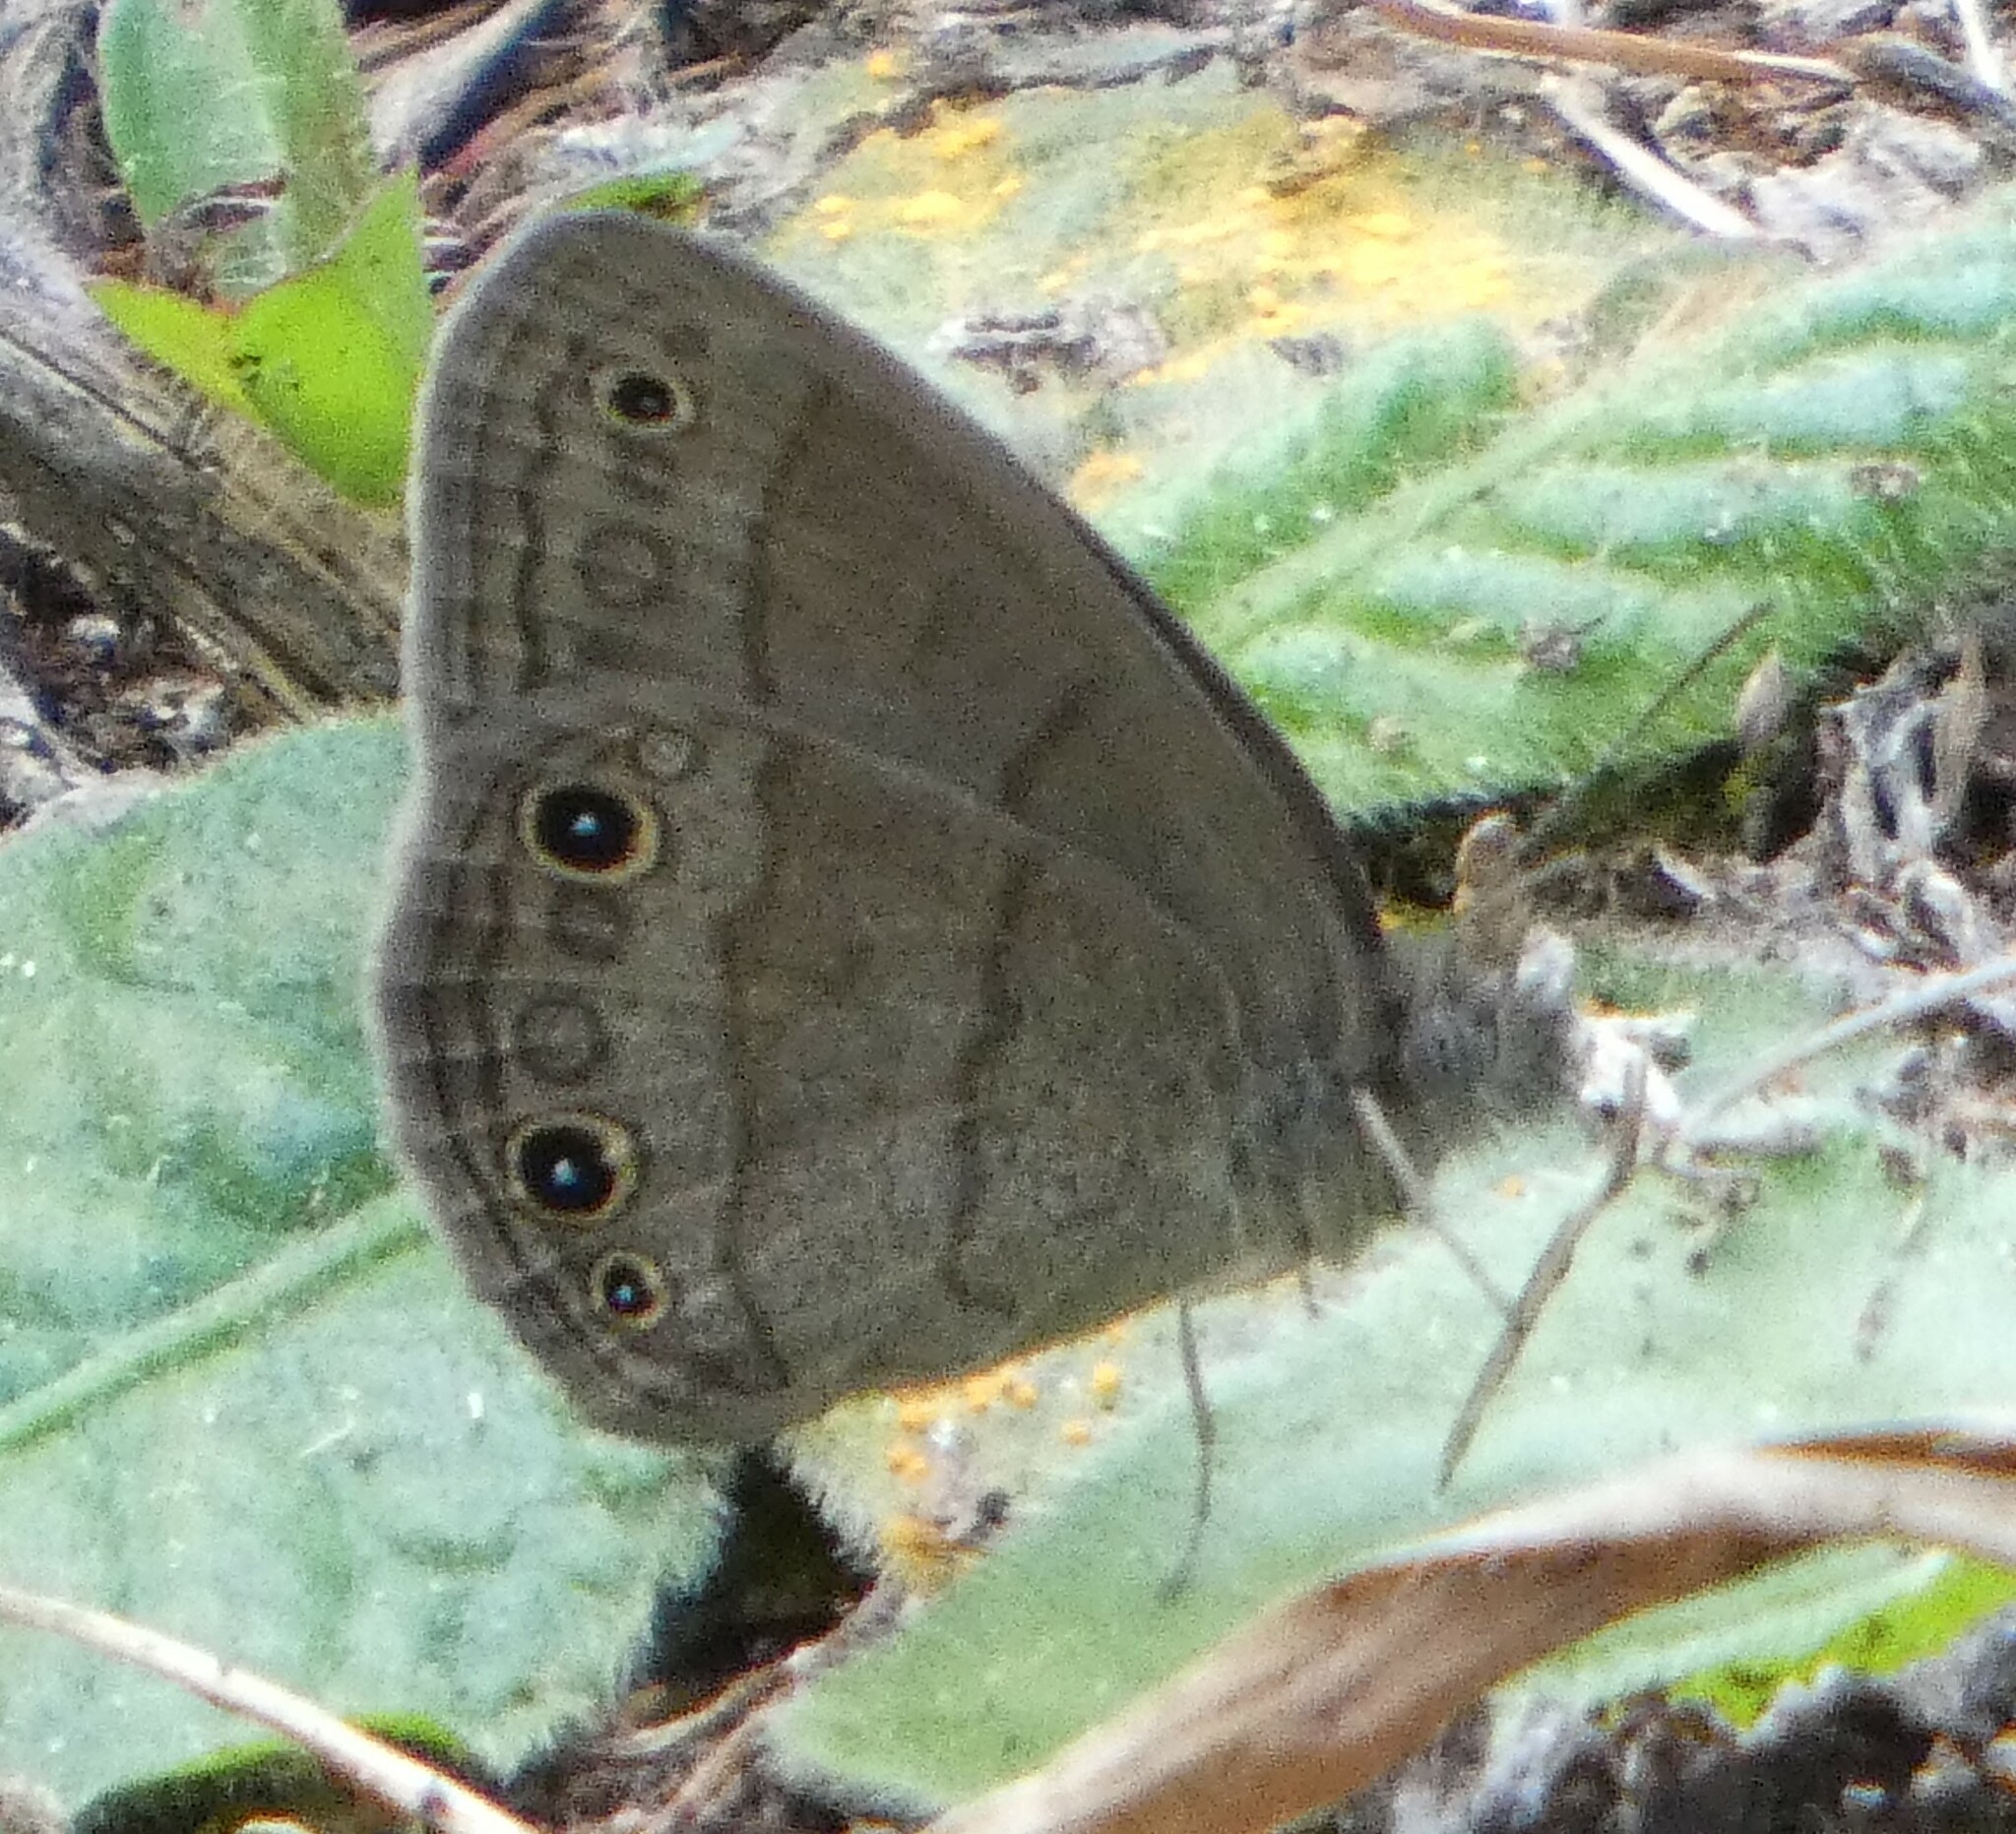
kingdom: Animalia
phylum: Arthropoda
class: Insecta
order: Lepidoptera
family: Nymphalidae
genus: Hermeuptychia
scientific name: Hermeuptychia hermes
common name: Hermes satyr
